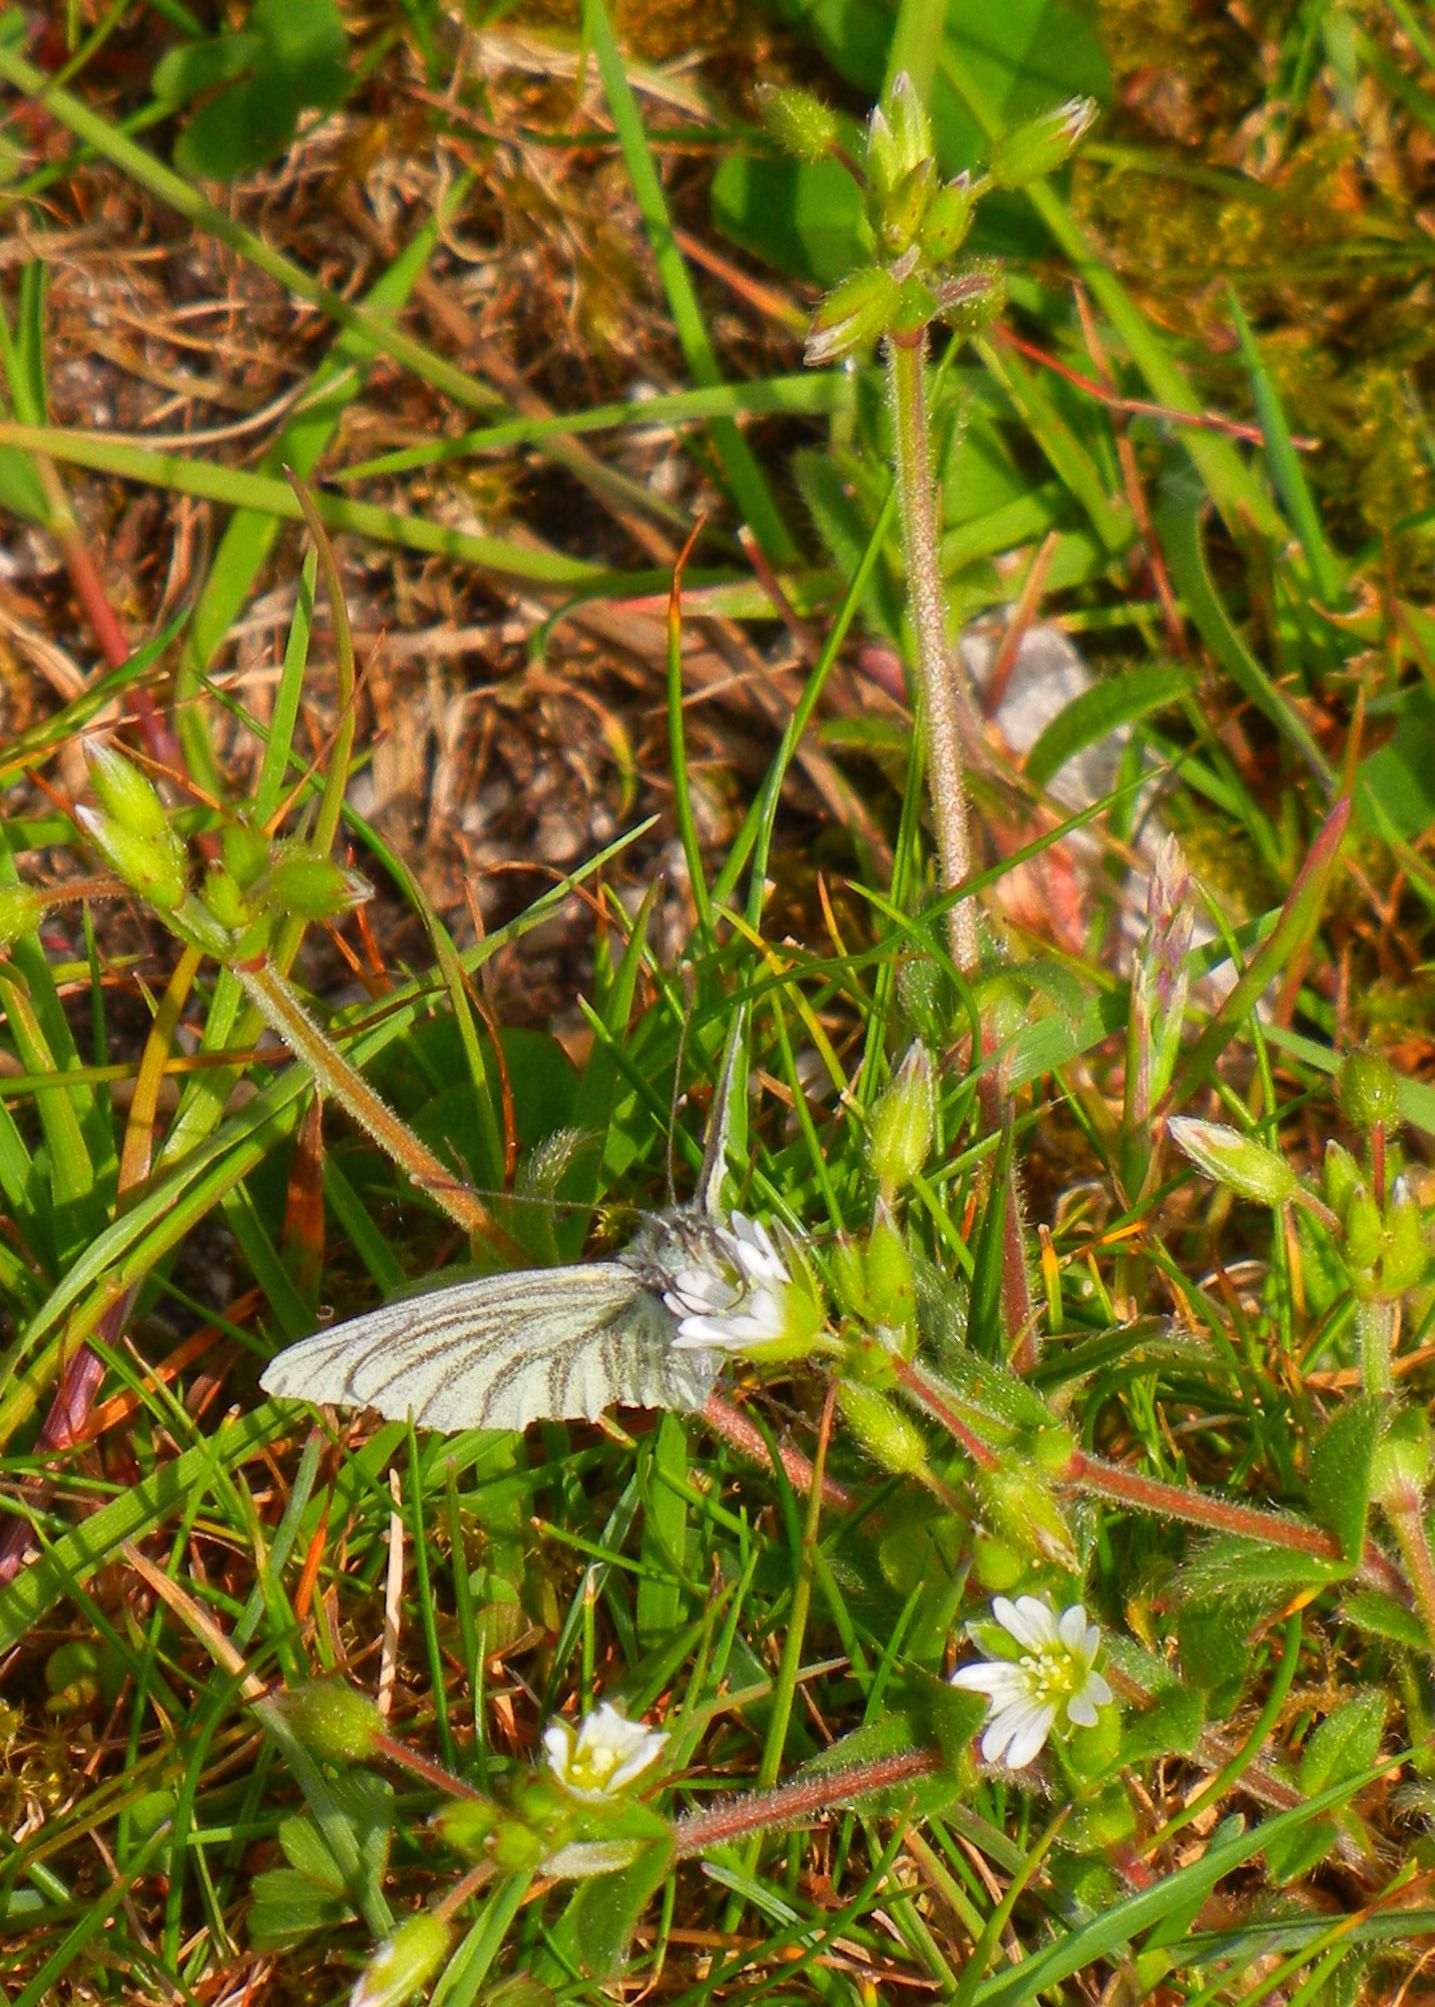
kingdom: Plantae
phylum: Tracheophyta
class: Magnoliopsida
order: Caryophyllales
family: Caryophyllaceae
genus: Cerastium
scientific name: Cerastium glomeratum
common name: Sticky chickweed
